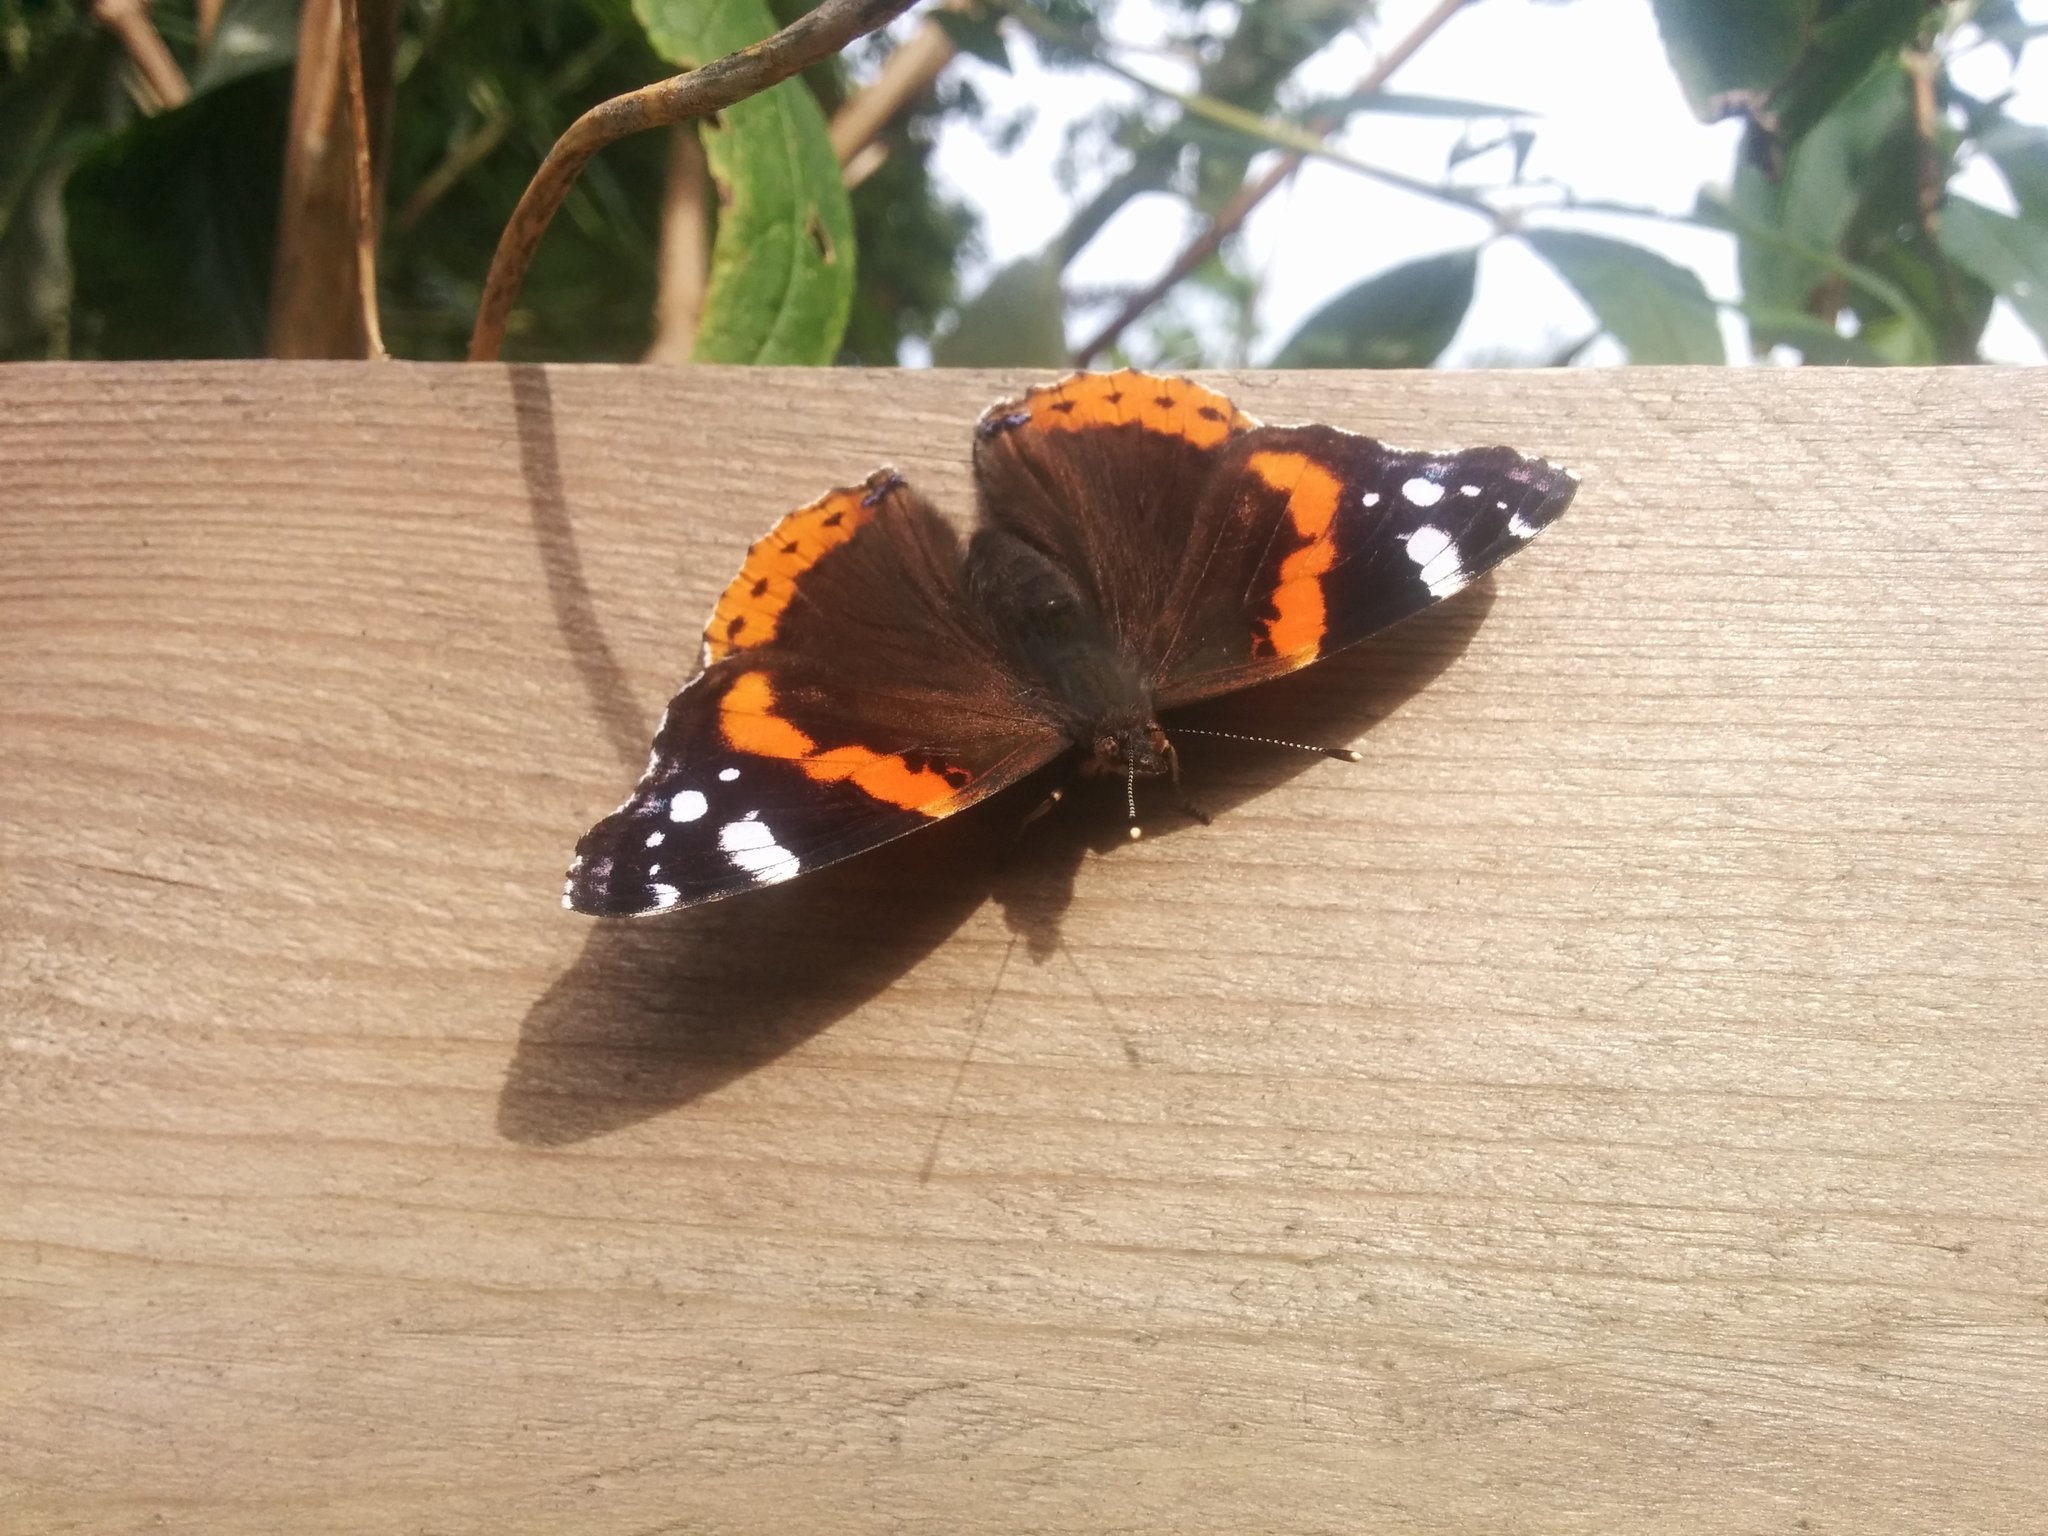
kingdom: Animalia
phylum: Arthropoda
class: Insecta
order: Lepidoptera
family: Nymphalidae
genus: Vanessa
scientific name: Vanessa atalanta
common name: Red admiral
